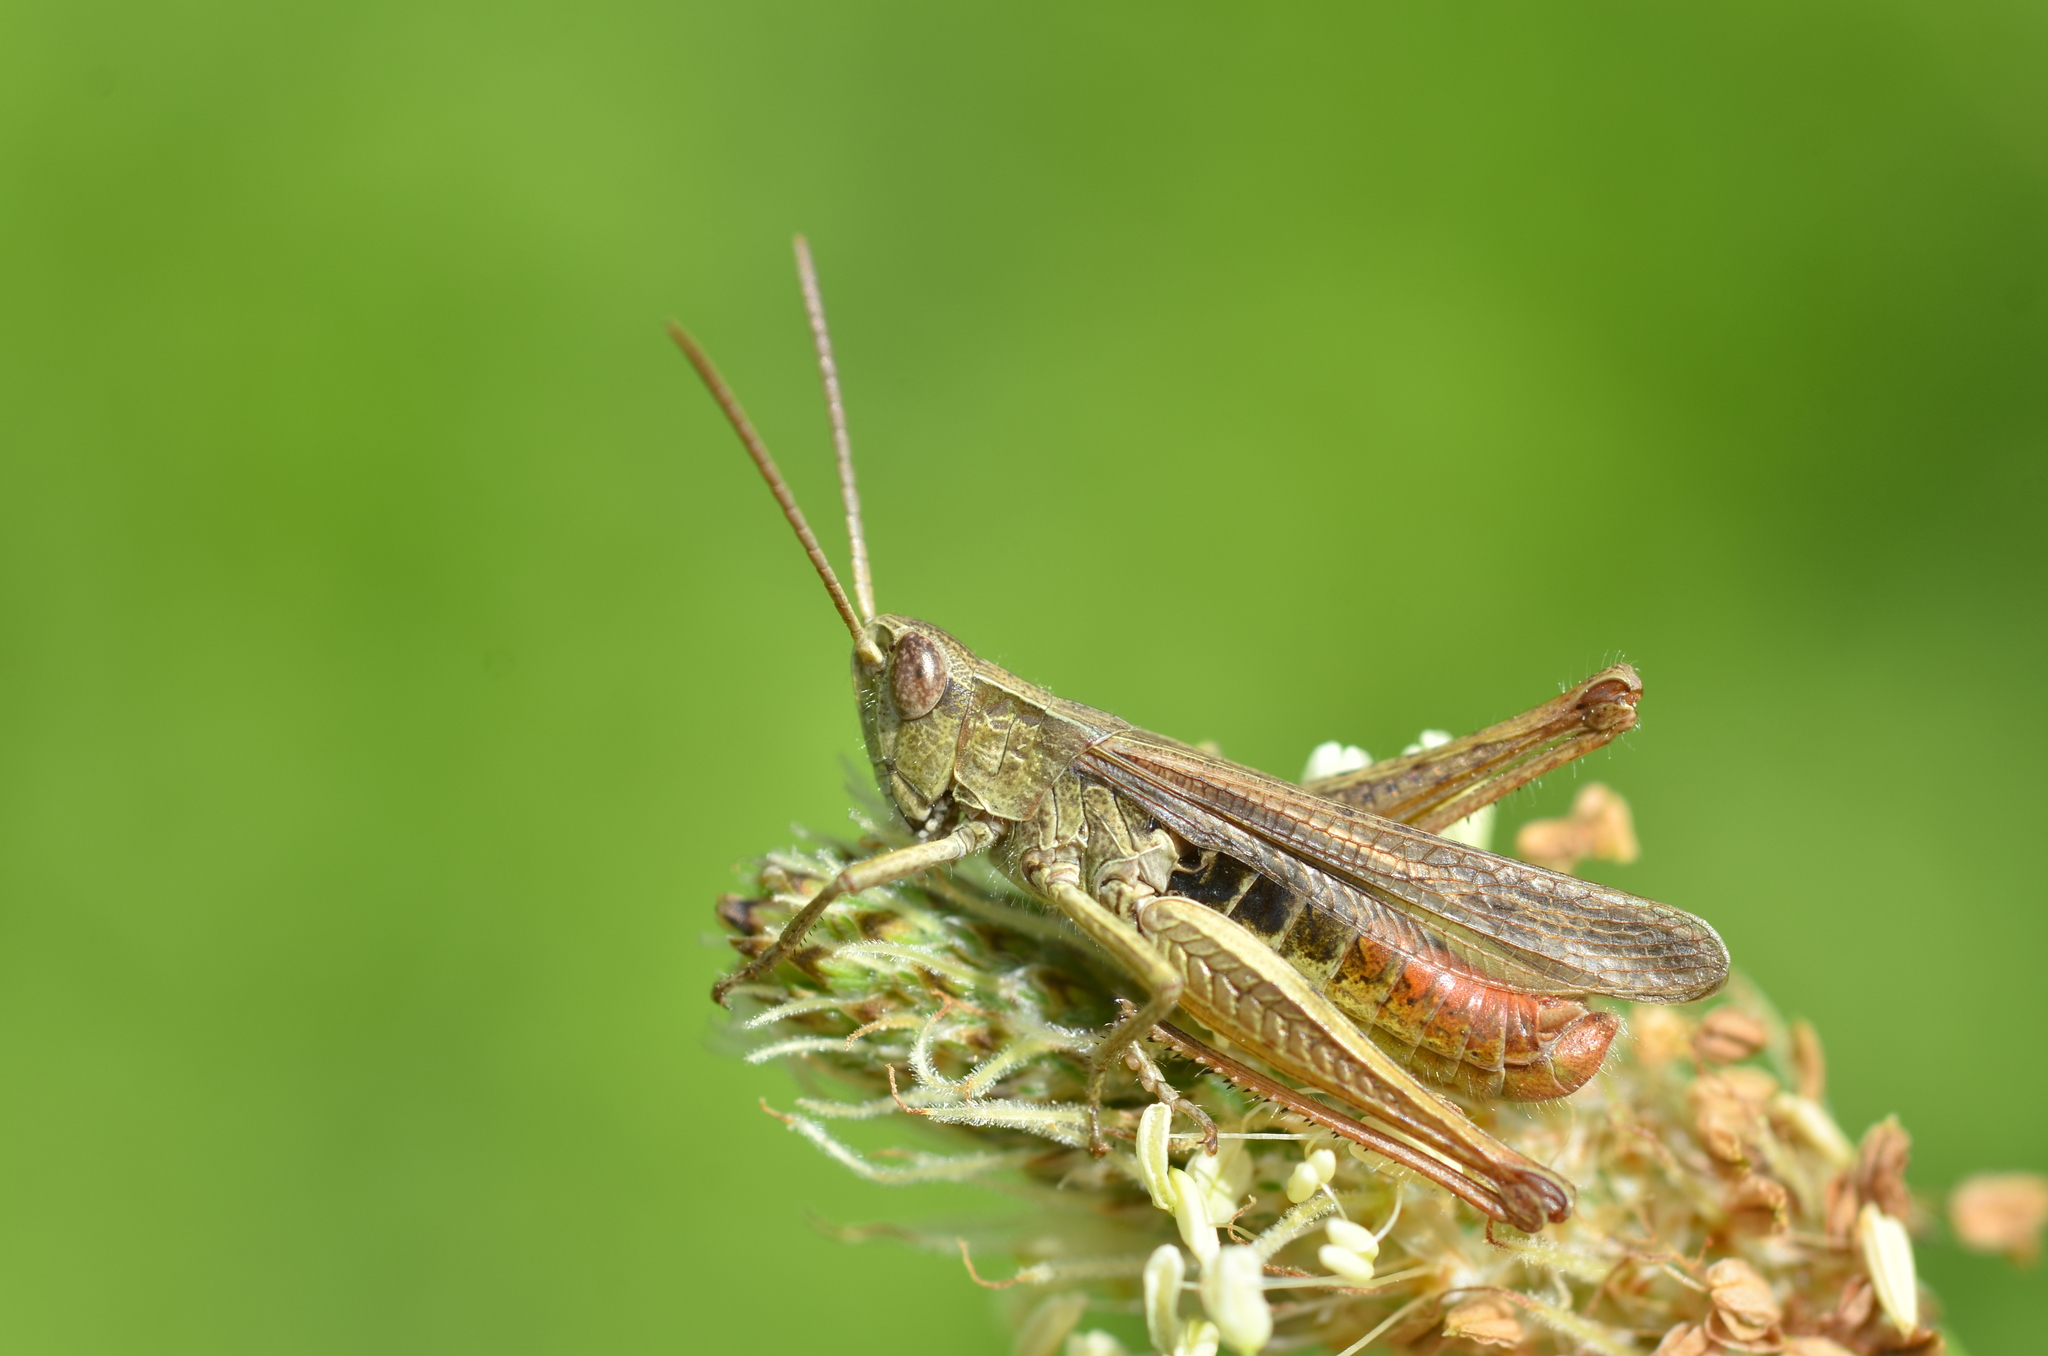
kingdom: Animalia
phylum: Arthropoda
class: Insecta
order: Orthoptera
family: Acrididae
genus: Chorthippus
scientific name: Chorthippus dorsatus
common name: Steppe grasshopper
